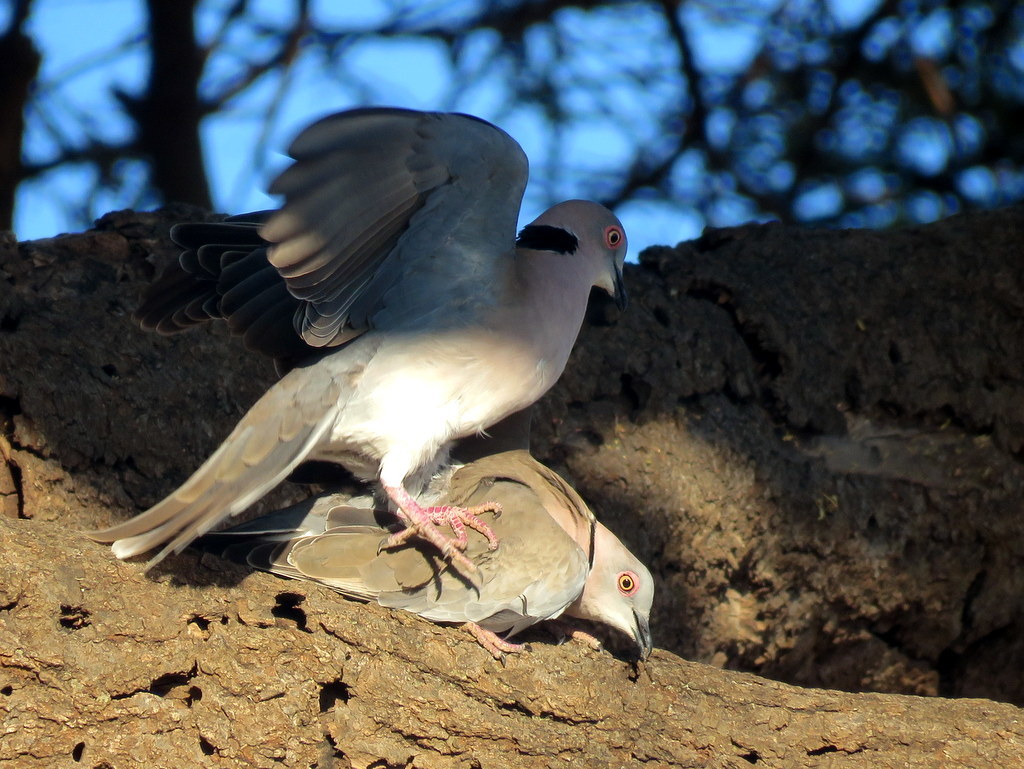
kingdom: Animalia
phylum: Chordata
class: Aves
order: Columbiformes
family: Columbidae
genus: Streptopelia
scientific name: Streptopelia decipiens
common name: Mourning collared dove
